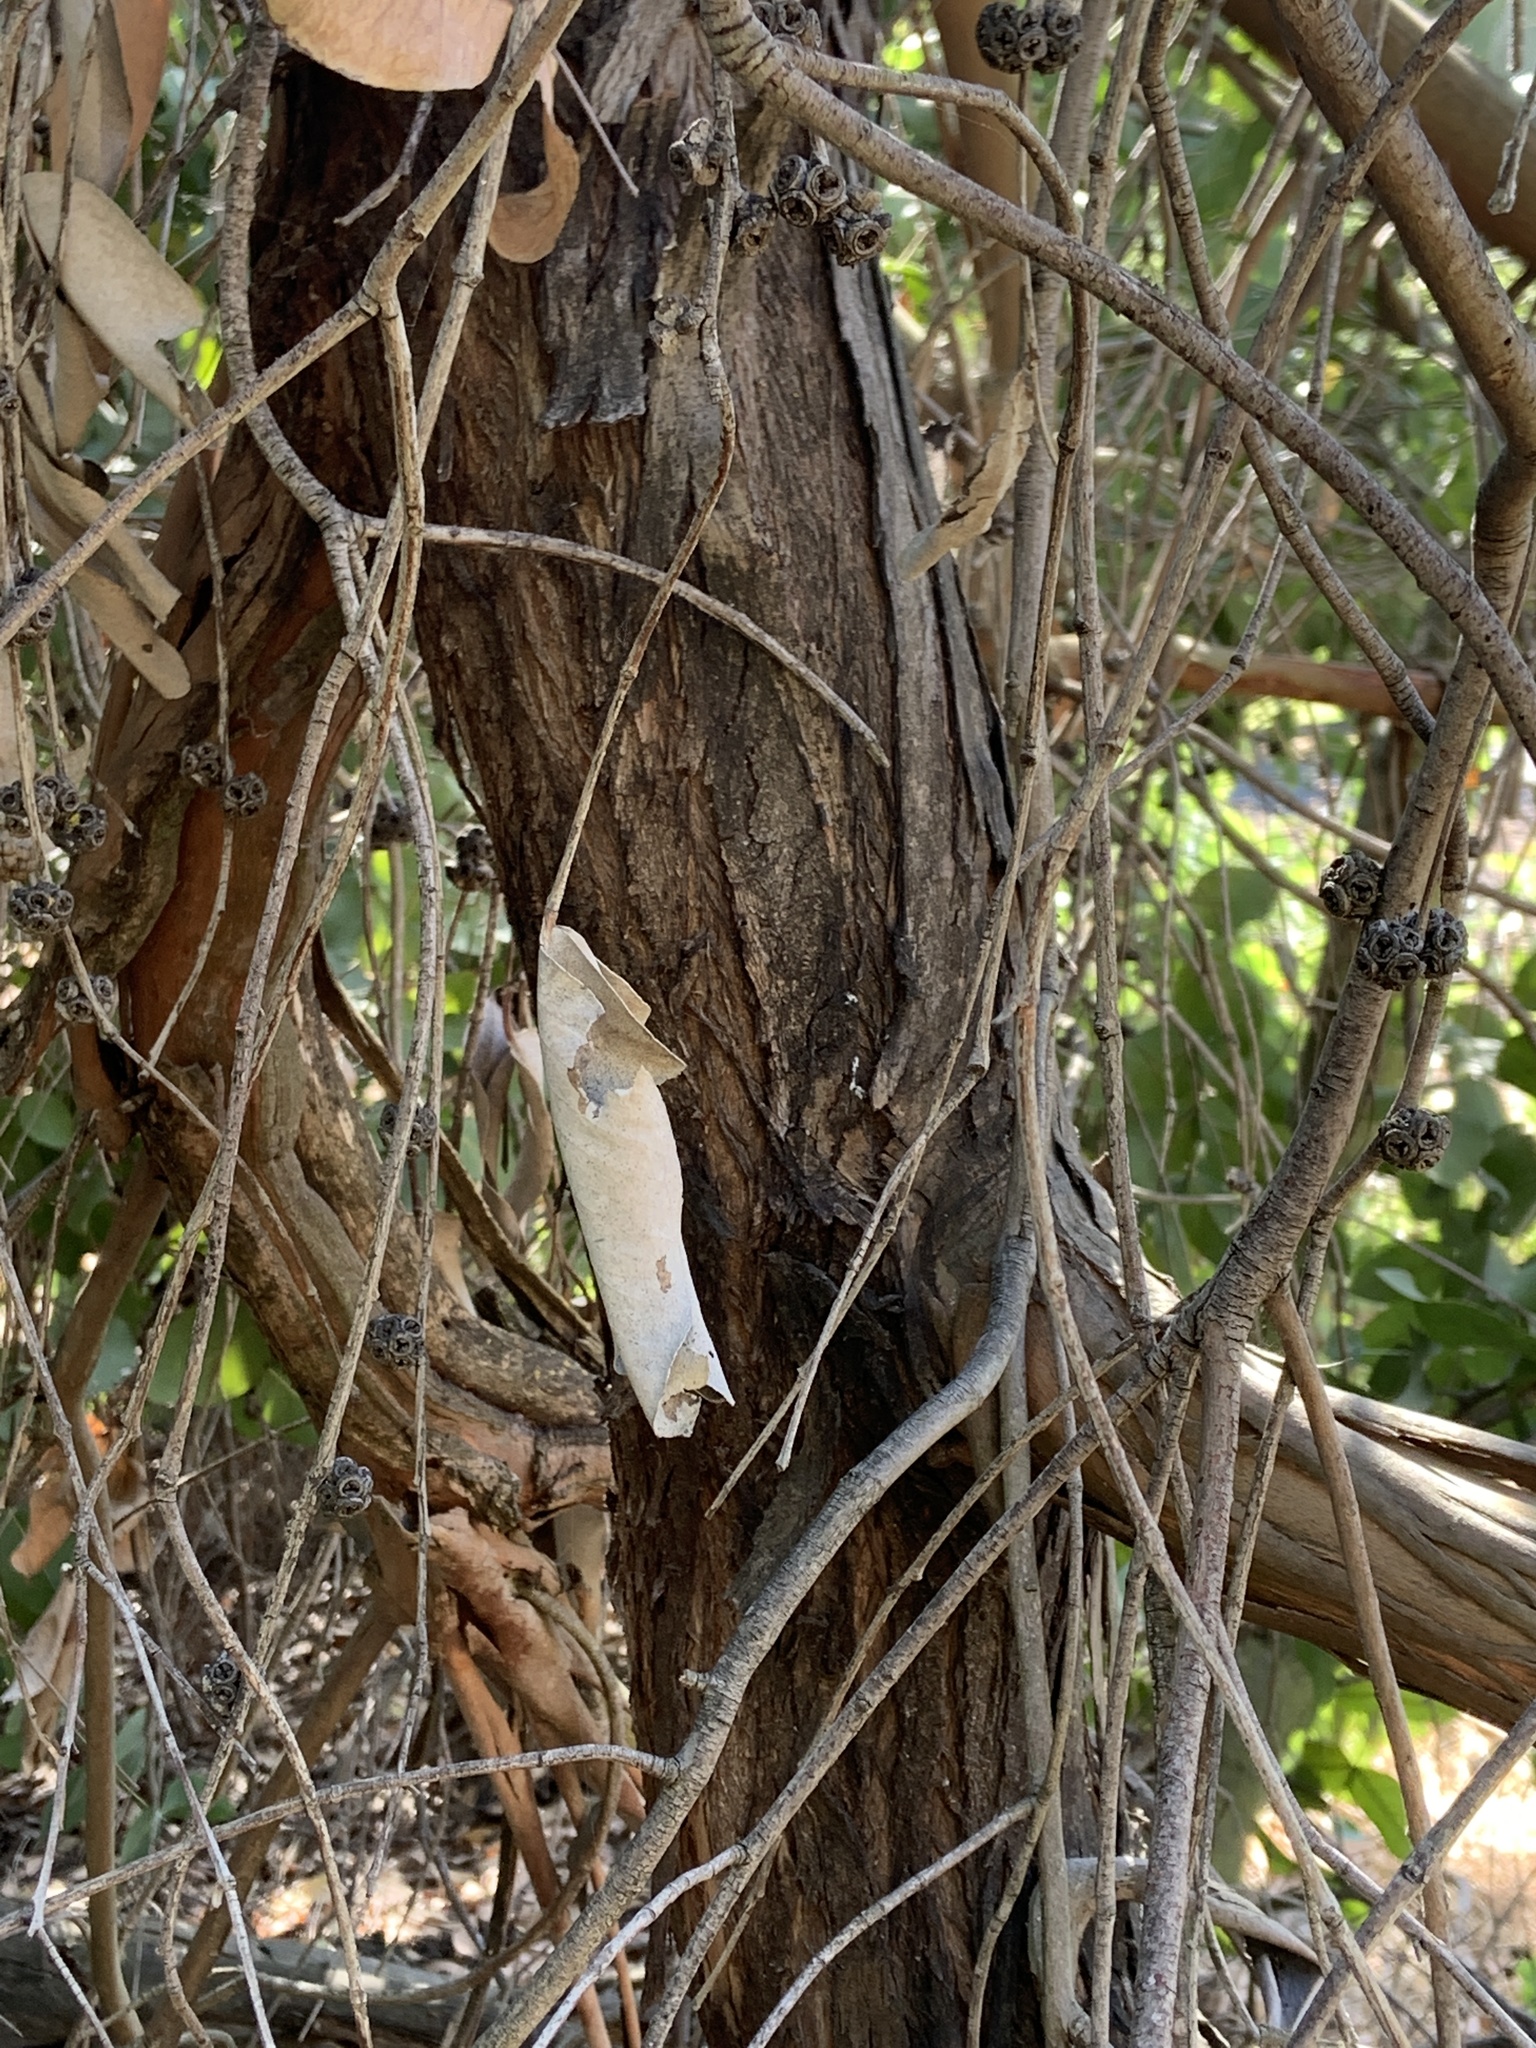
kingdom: Plantae
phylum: Tracheophyta
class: Magnoliopsida
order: Myrtales
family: Myrtaceae
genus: Eucalyptus
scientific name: Eucalyptus neglecta
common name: Omeo gum
